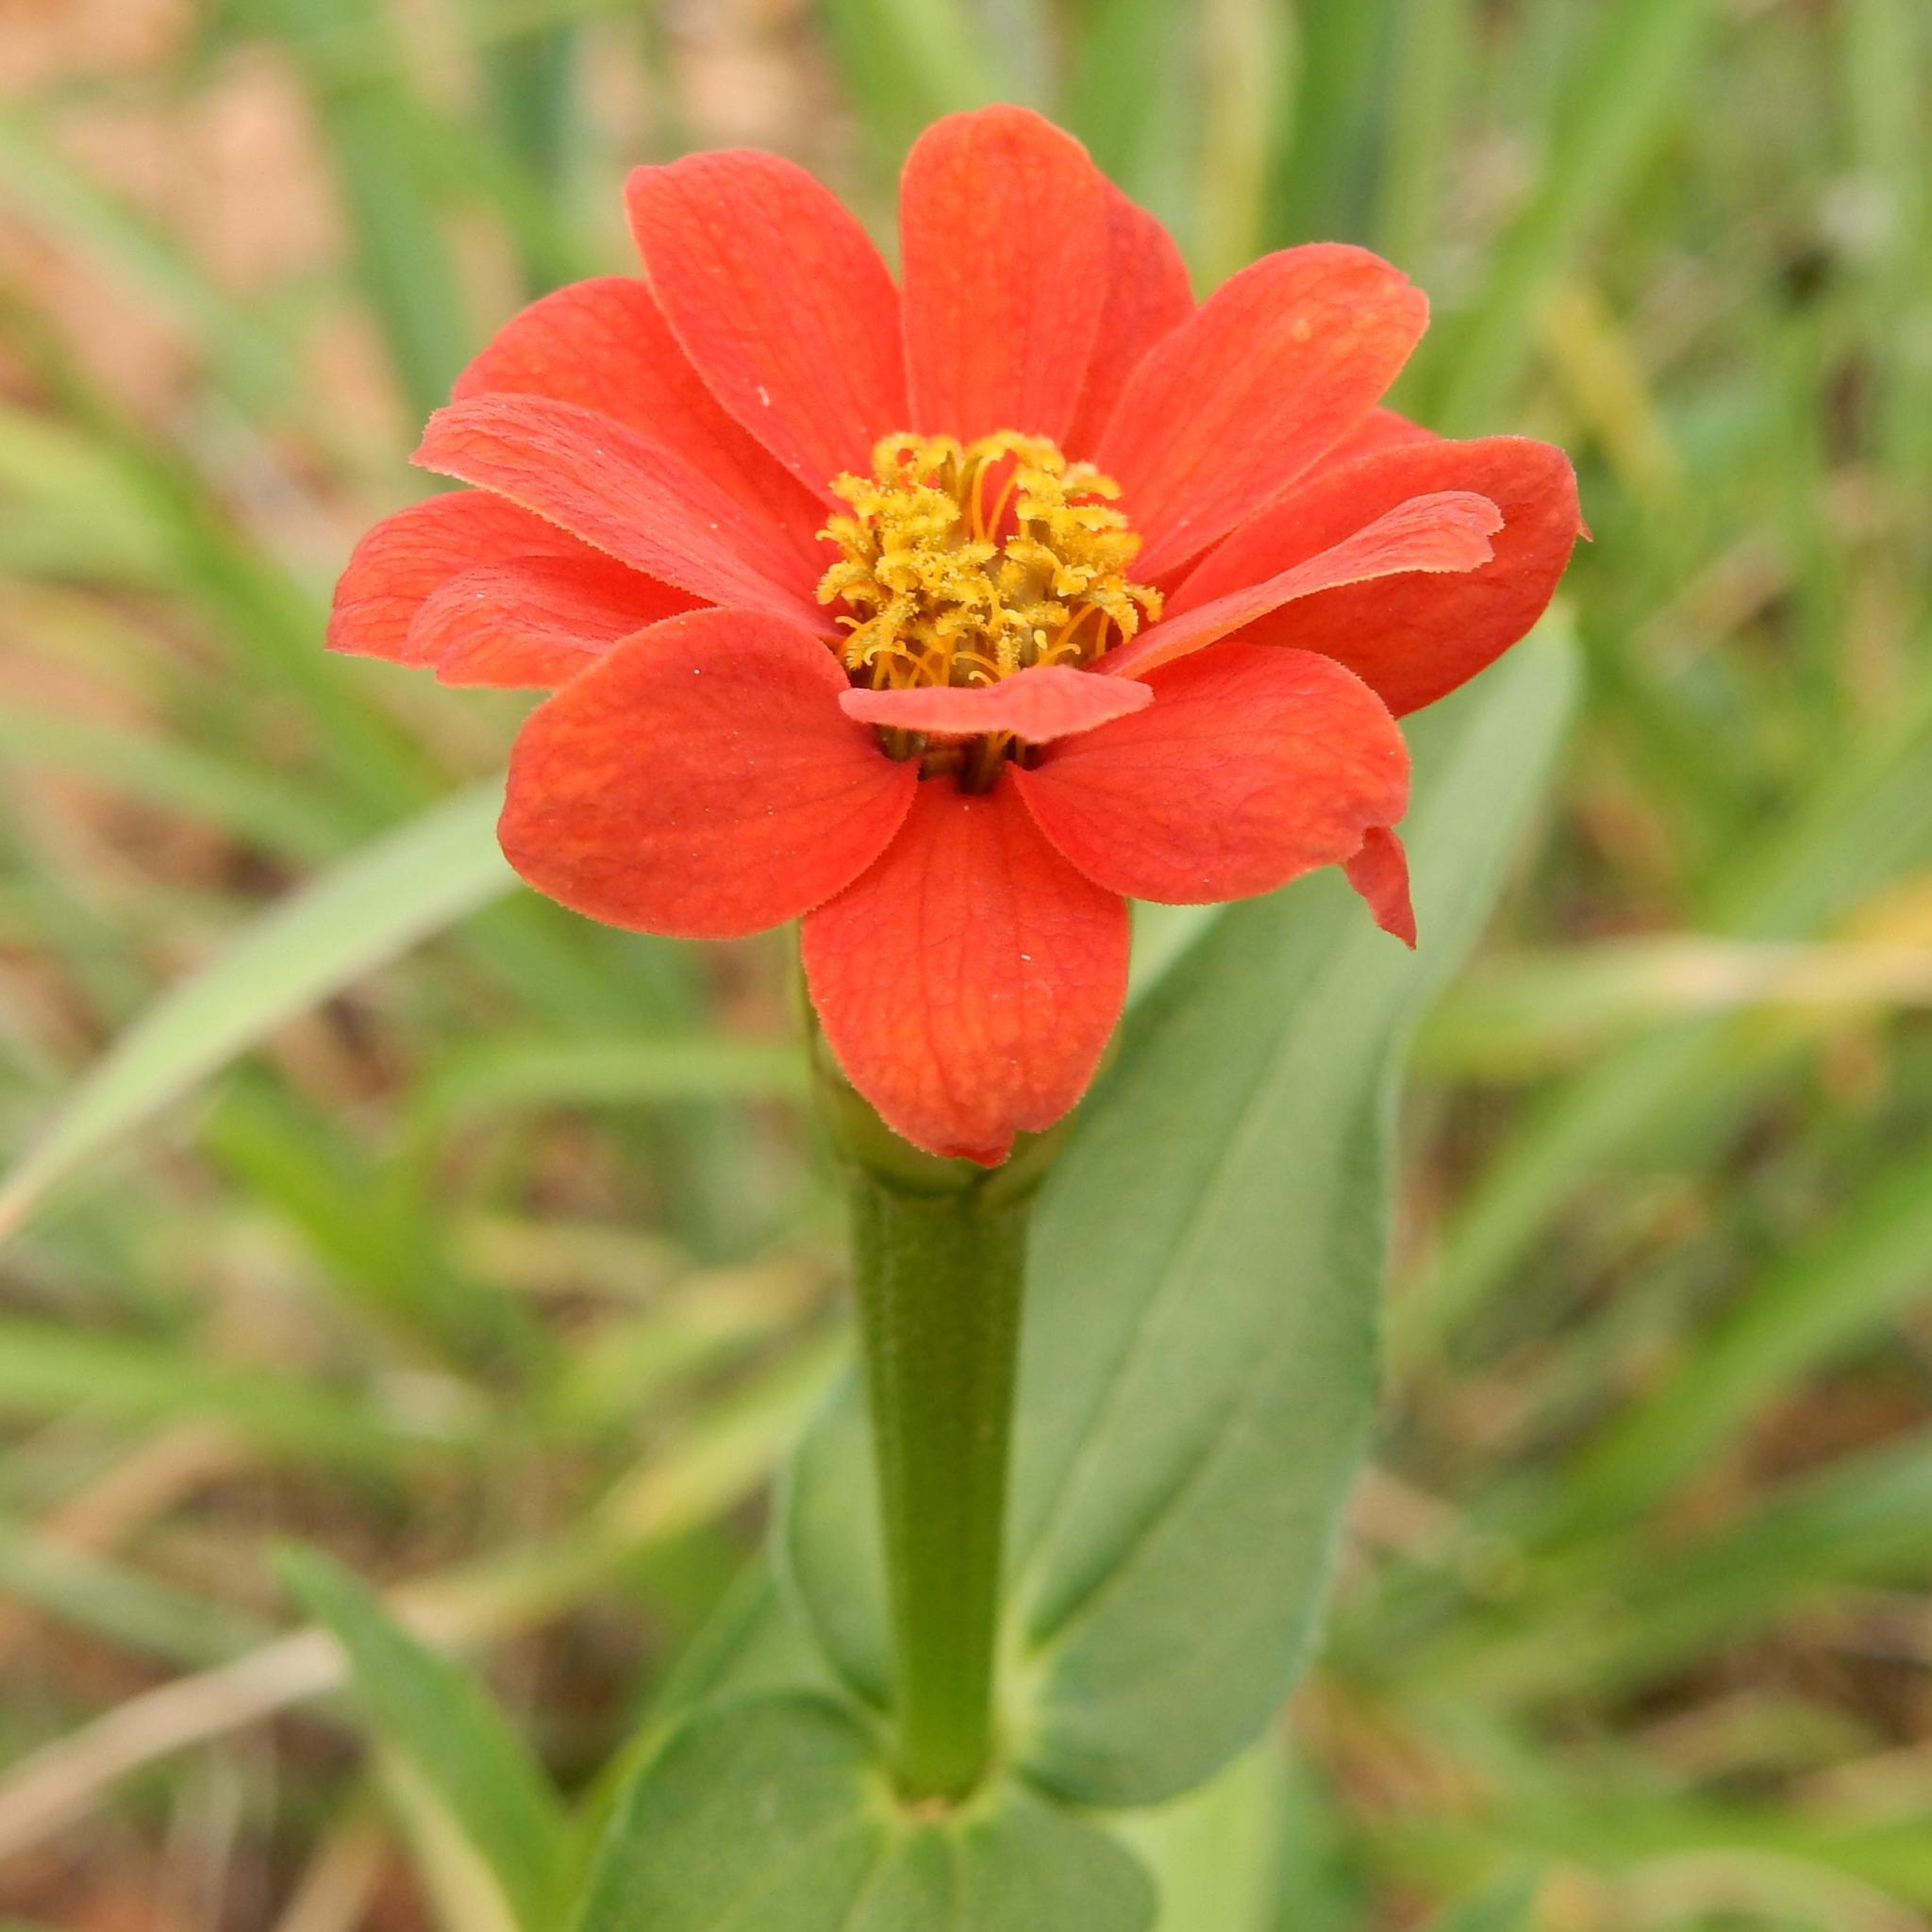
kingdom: Plantae
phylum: Tracheophyta
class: Magnoliopsida
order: Asterales
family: Asteraceae
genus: Zinnia
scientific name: Zinnia peruviana
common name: Peruvian zinnia
